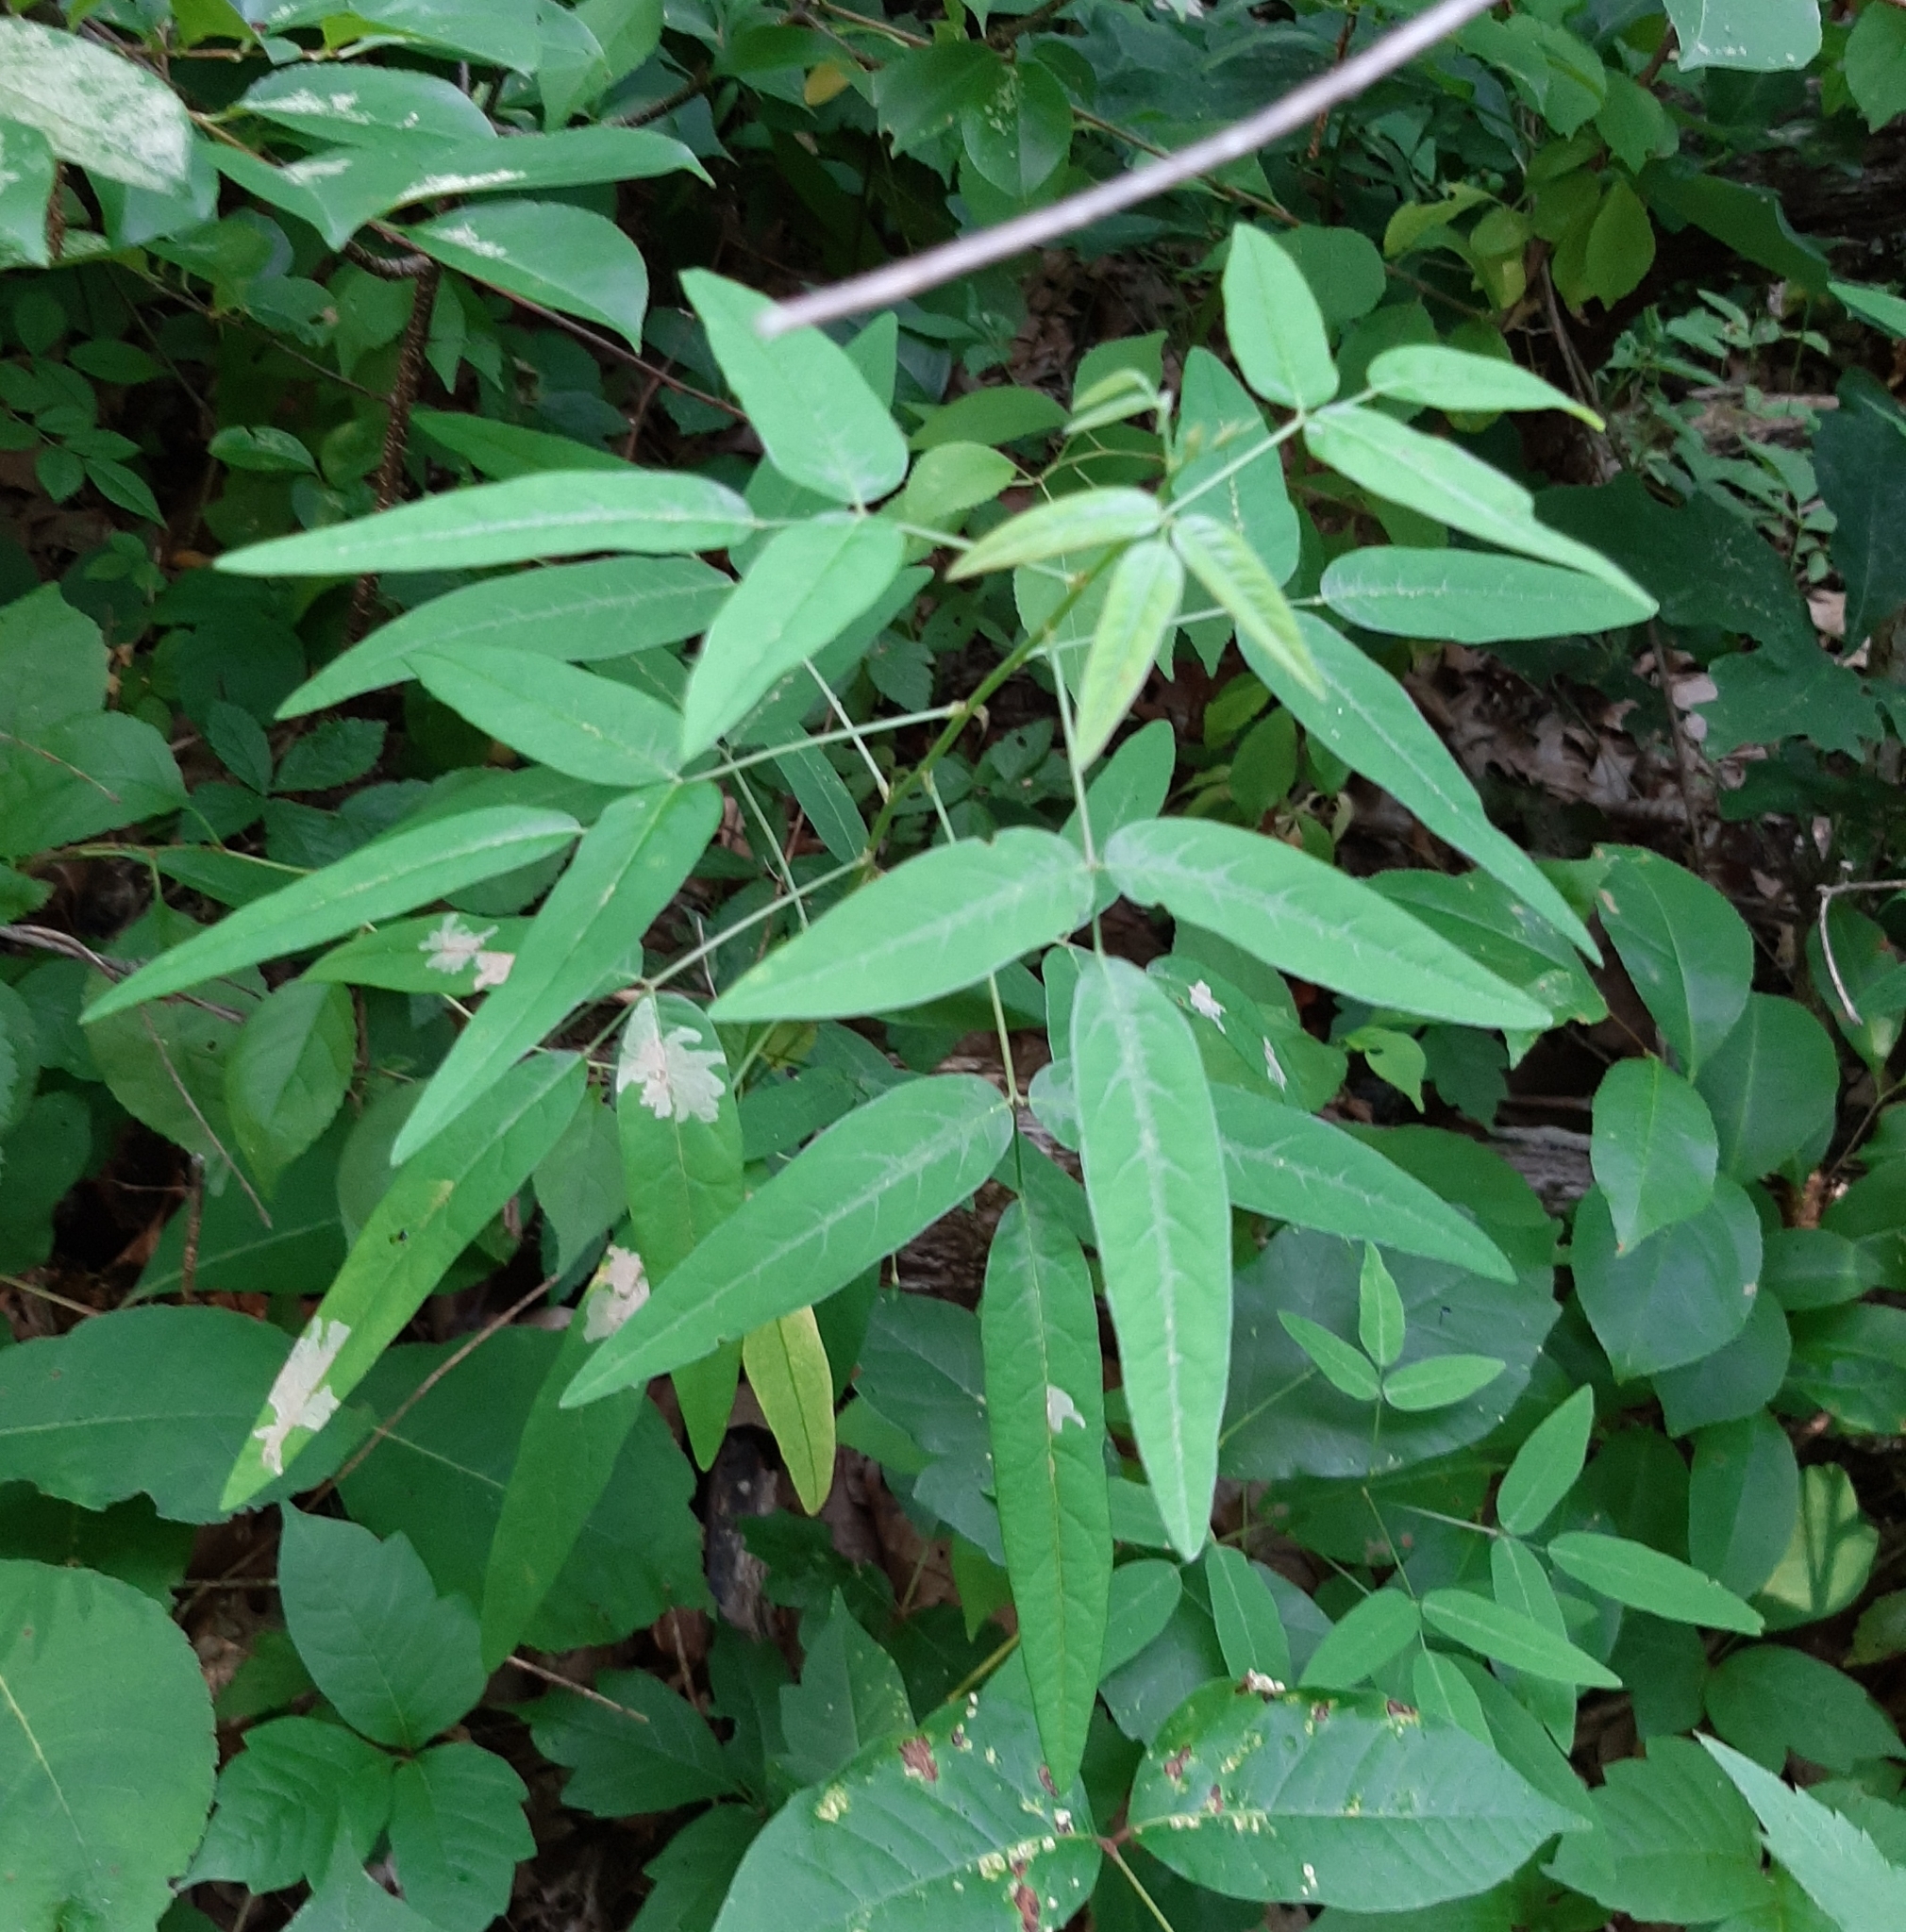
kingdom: Animalia
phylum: Arthropoda
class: Insecta
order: Lepidoptera
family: Gracillariidae
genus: Parectopa
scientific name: Parectopa robiniella
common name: Locust digitate leafminer
